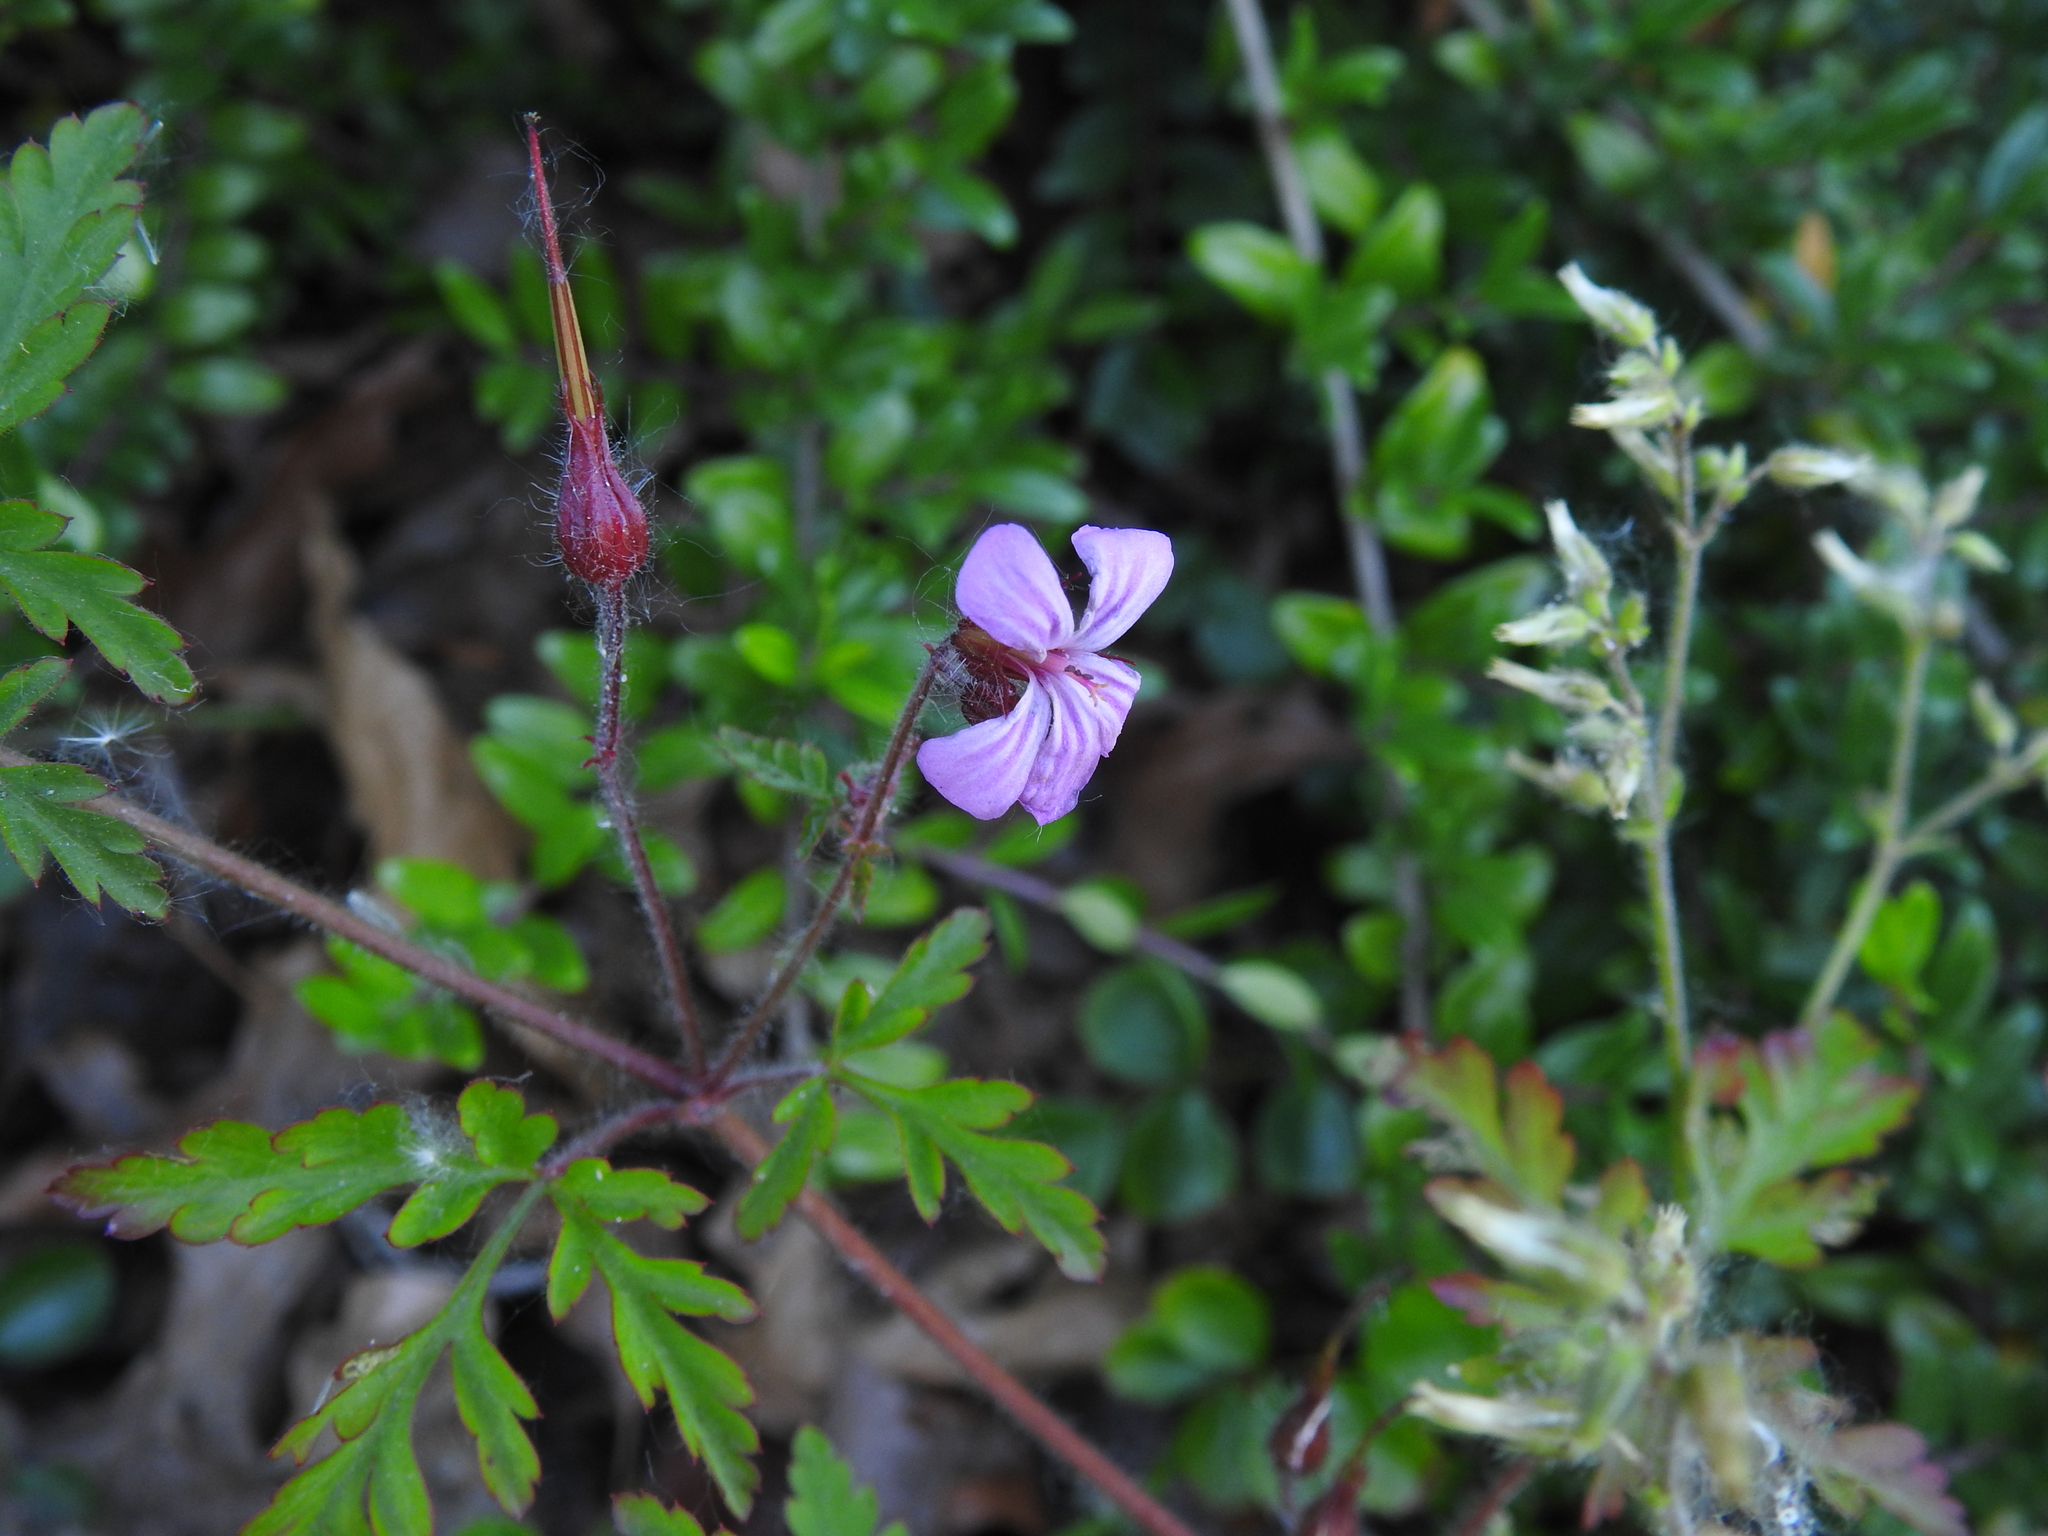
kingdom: Plantae
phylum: Tracheophyta
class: Magnoliopsida
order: Geraniales
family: Geraniaceae
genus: Geranium
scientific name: Geranium robertianum
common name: Herb-robert
